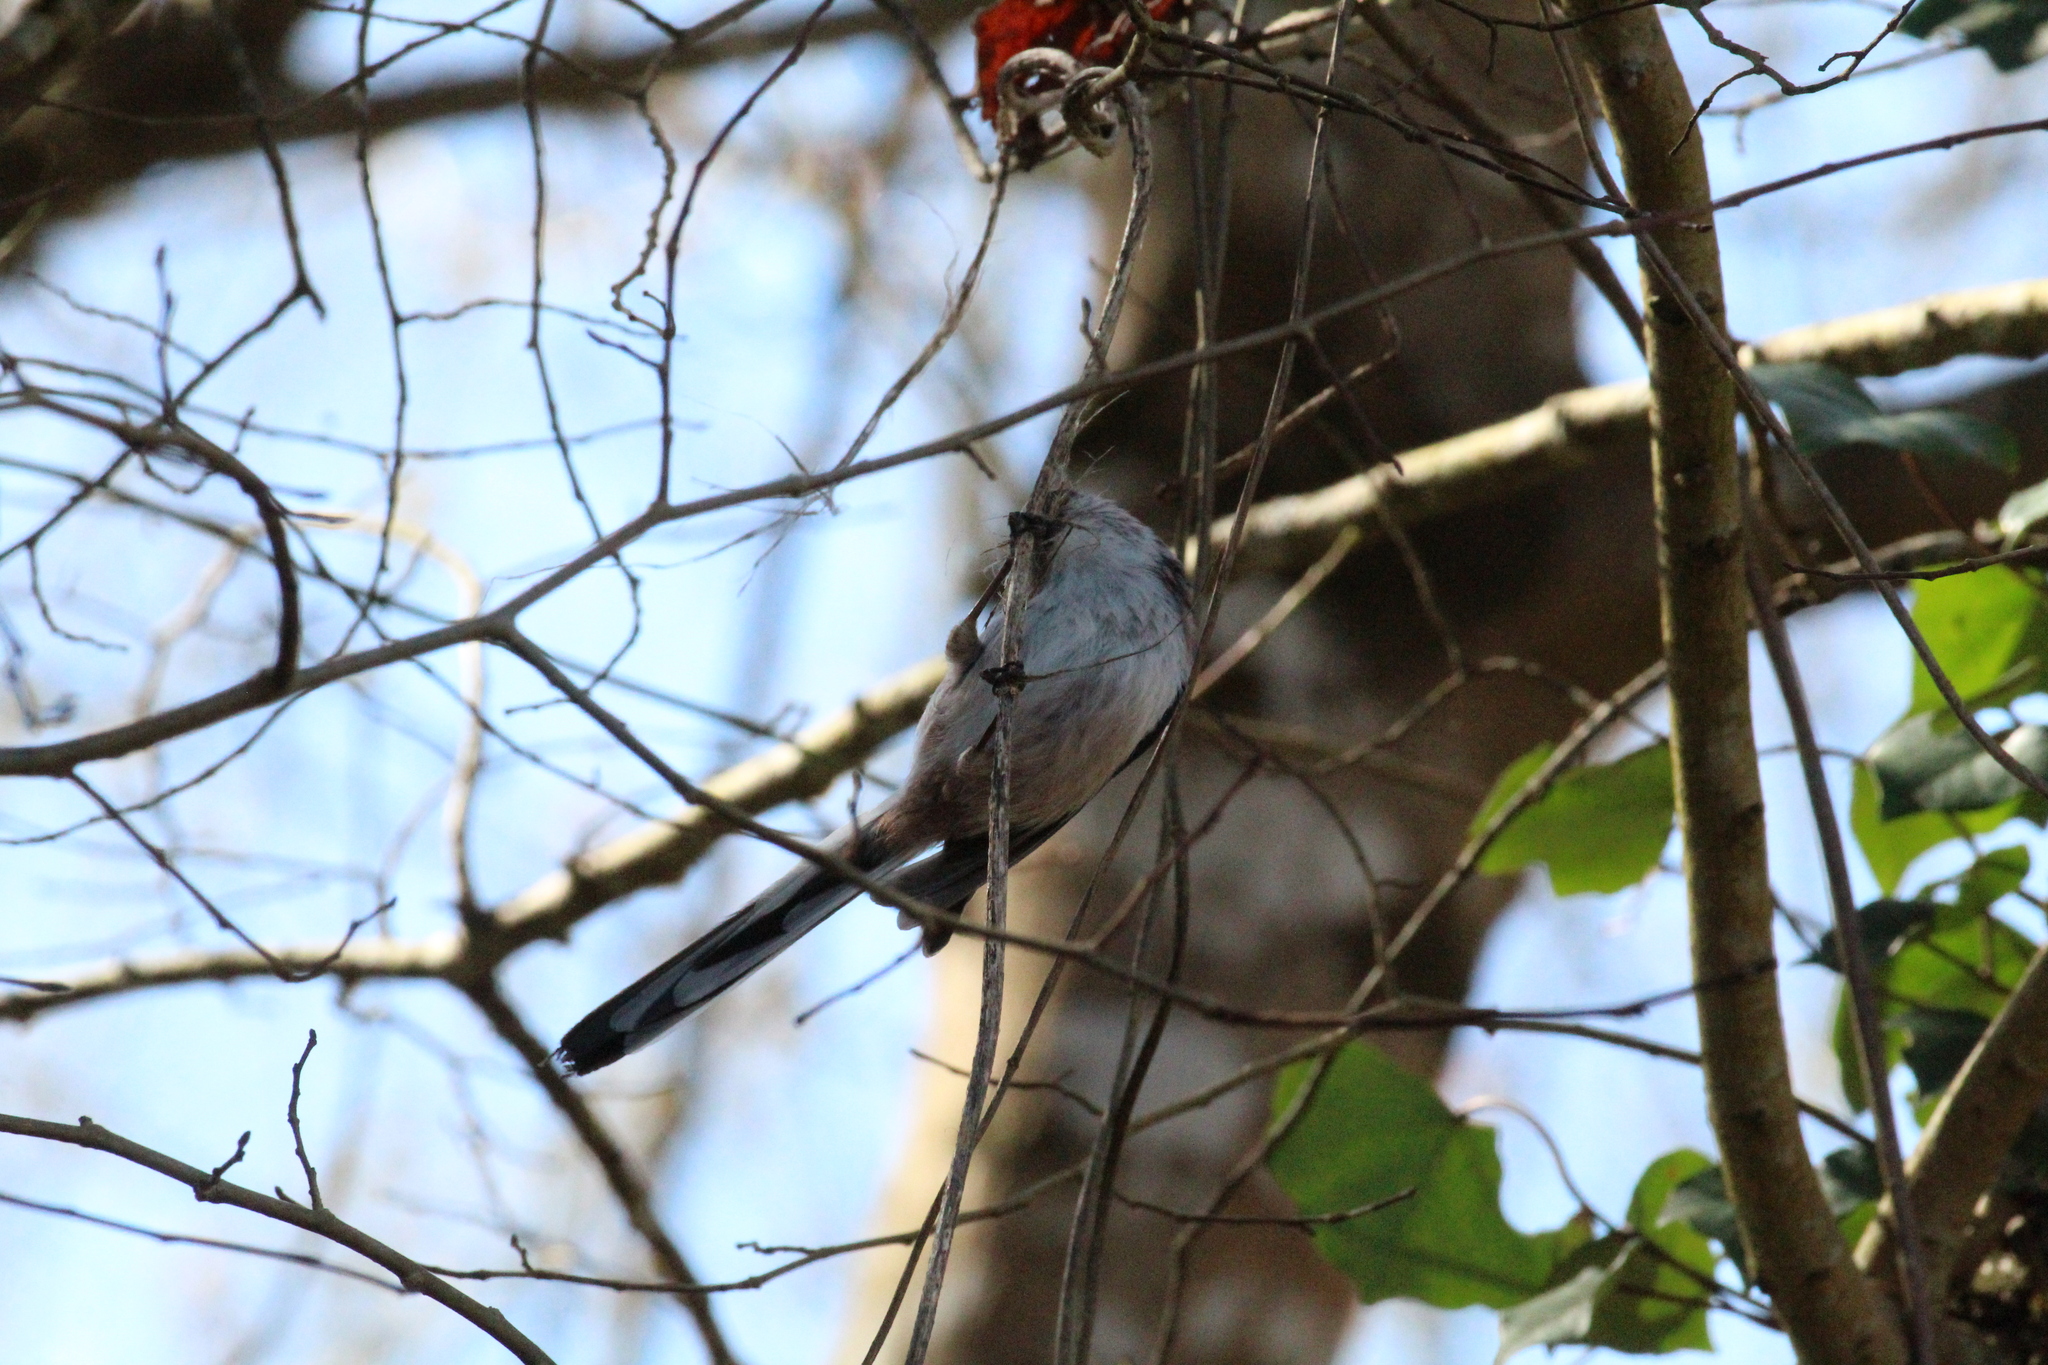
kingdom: Animalia
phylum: Chordata
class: Aves
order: Passeriformes
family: Aegithalidae
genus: Aegithalos
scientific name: Aegithalos caudatus
